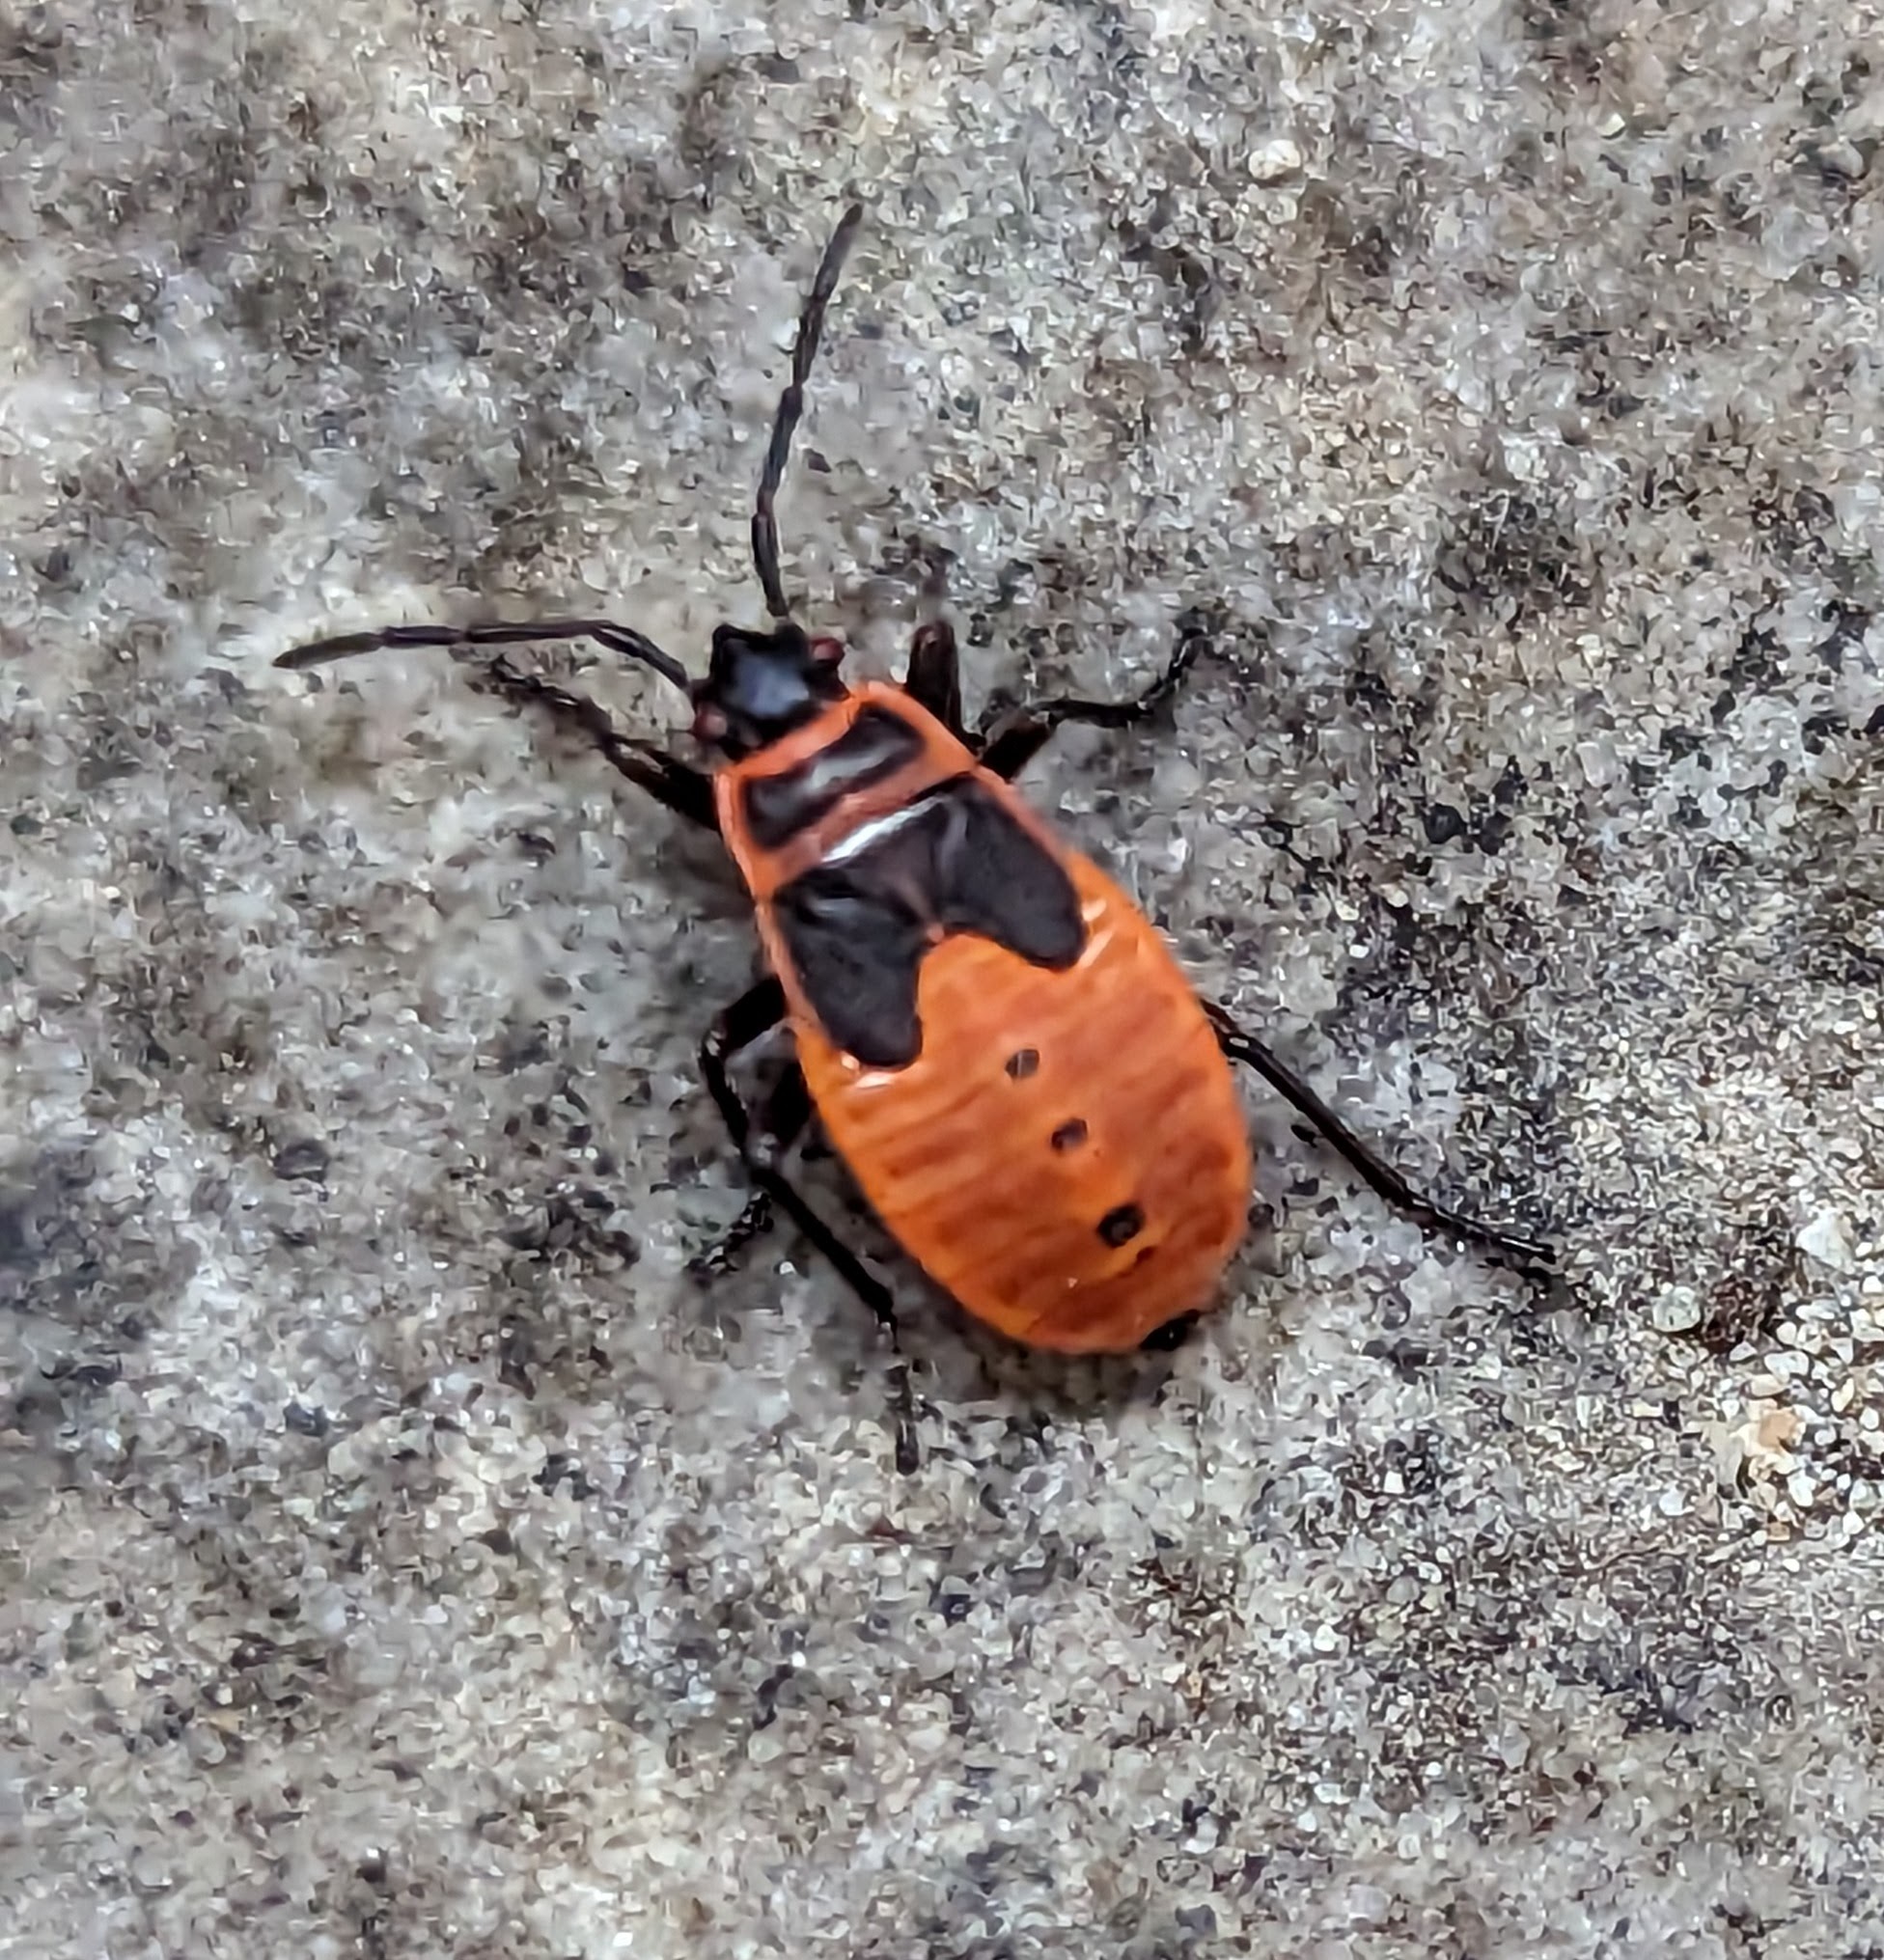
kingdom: Animalia
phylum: Arthropoda
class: Insecta
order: Hemiptera
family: Pyrrhocoridae
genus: Pyrrhocoris
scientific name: Pyrrhocoris apterus
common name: Firebug
